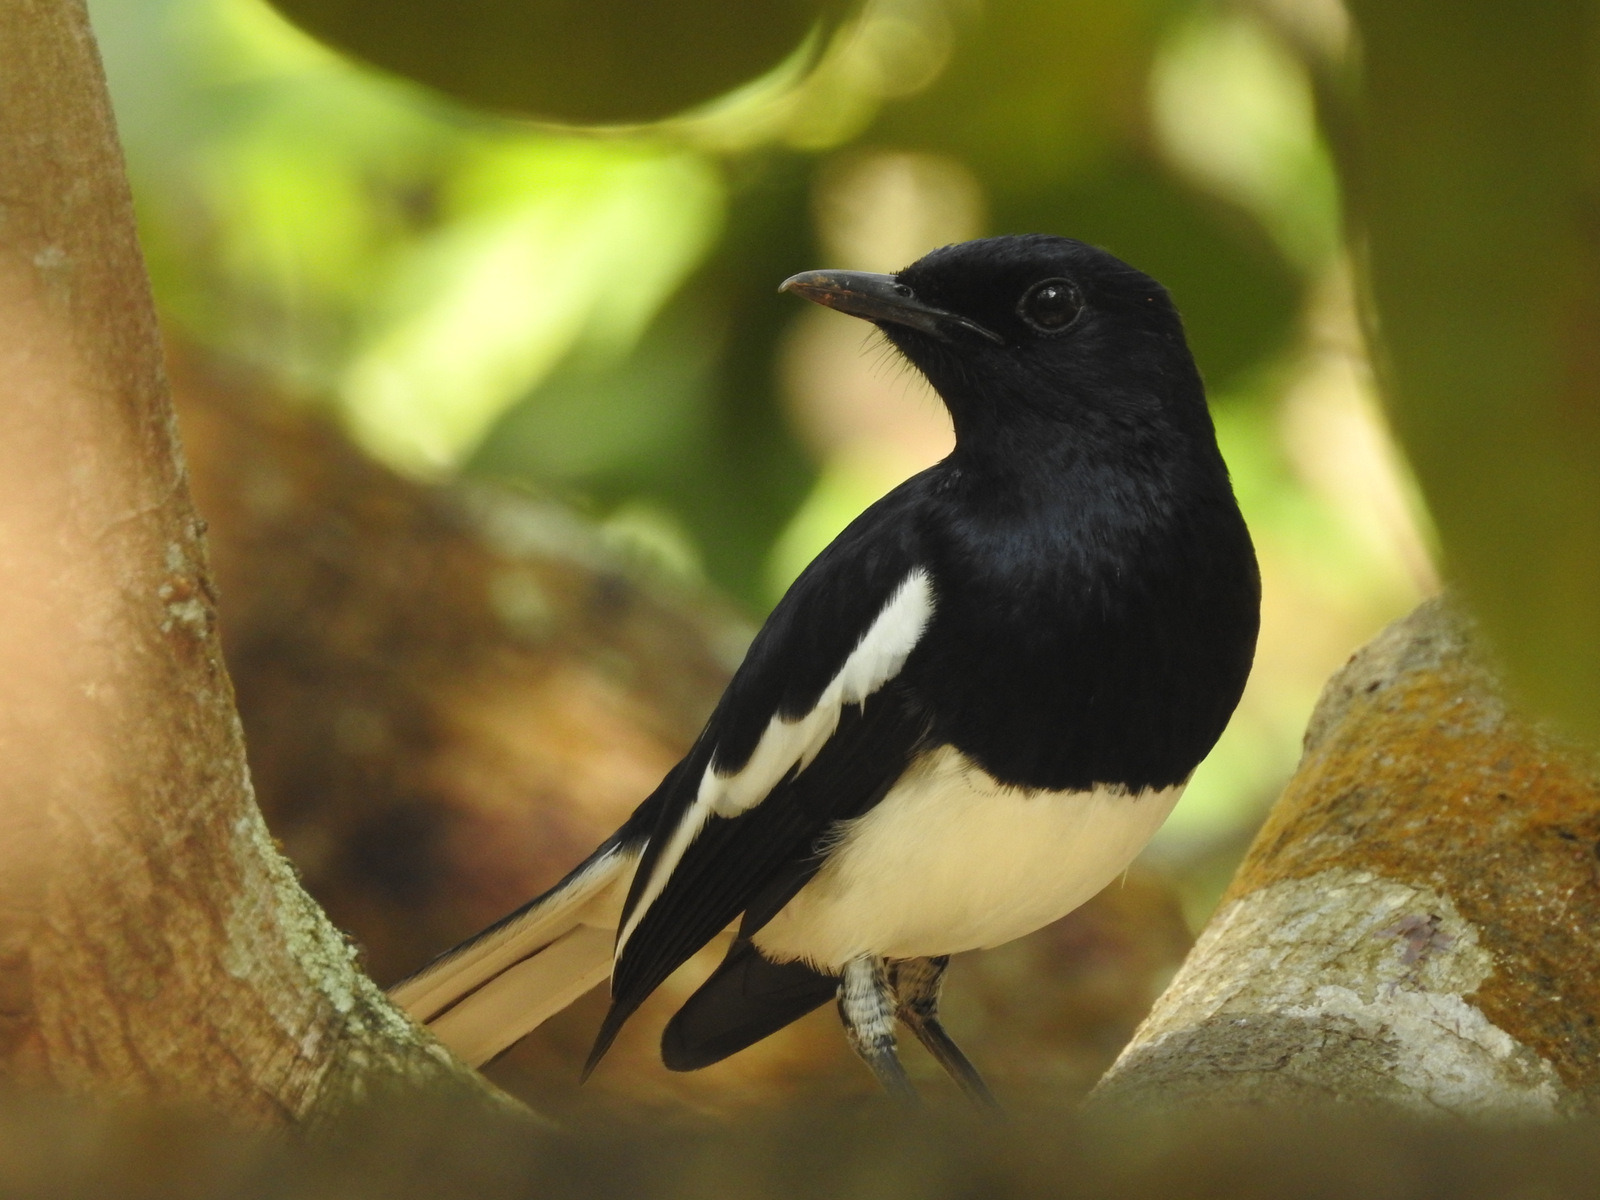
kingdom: Animalia
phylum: Chordata
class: Aves
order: Passeriformes
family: Muscicapidae
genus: Copsychus
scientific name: Copsychus saularis
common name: Oriental magpie-robin
